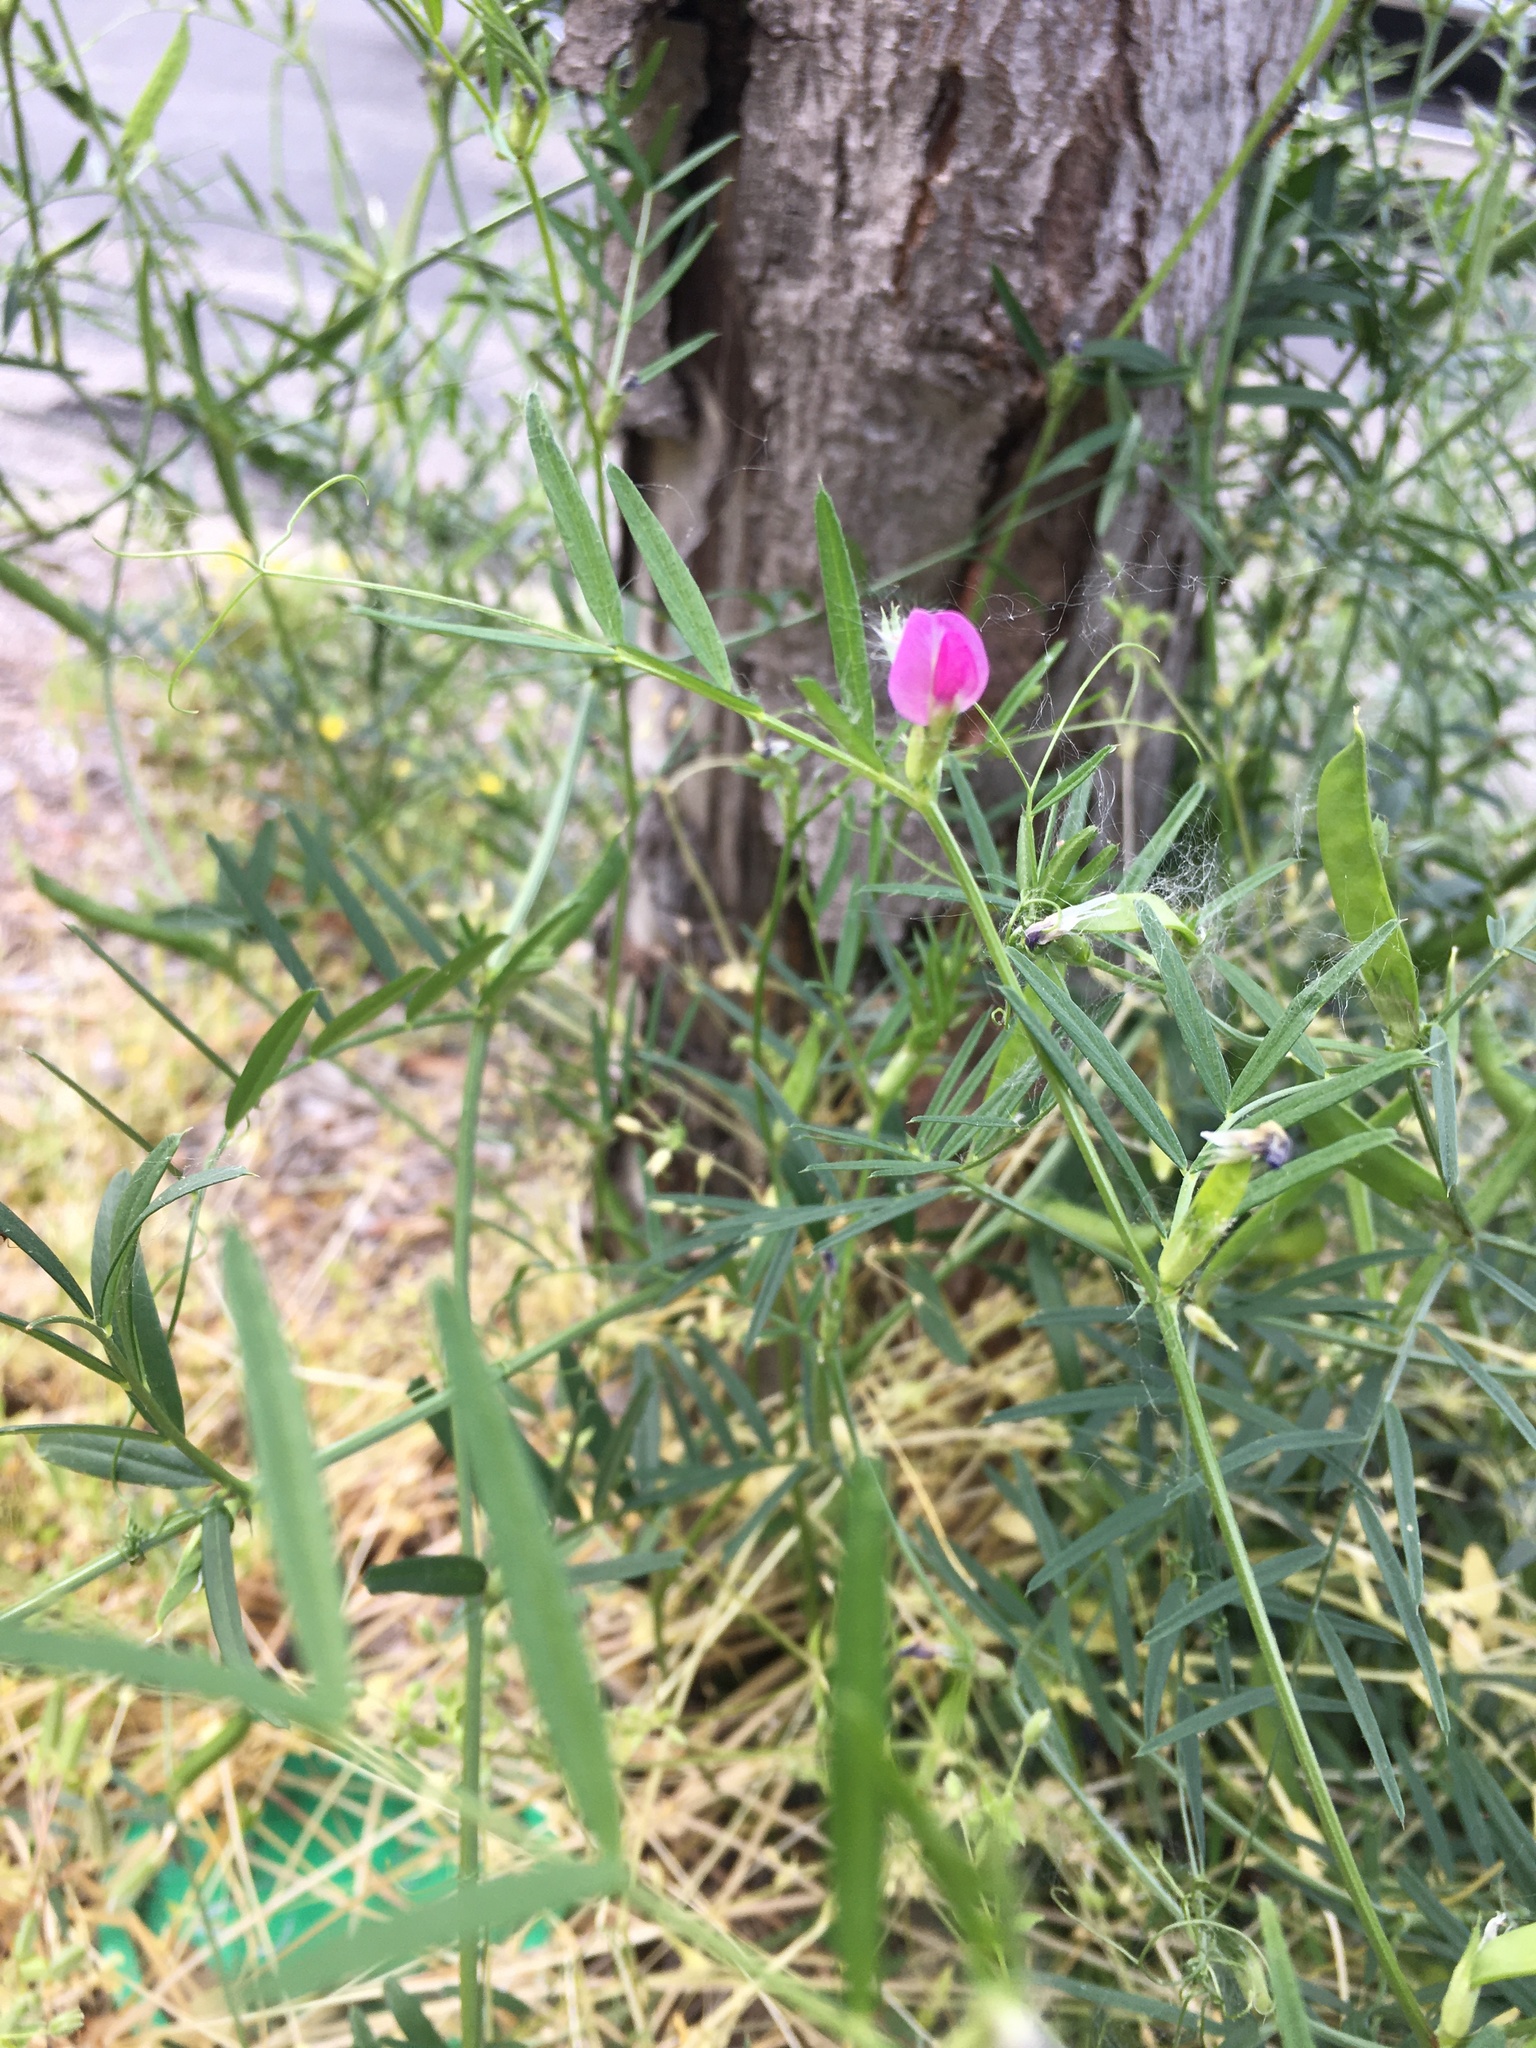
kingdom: Plantae
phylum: Tracheophyta
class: Magnoliopsida
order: Fabales
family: Fabaceae
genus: Vicia
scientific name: Vicia sativa
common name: Garden vetch
